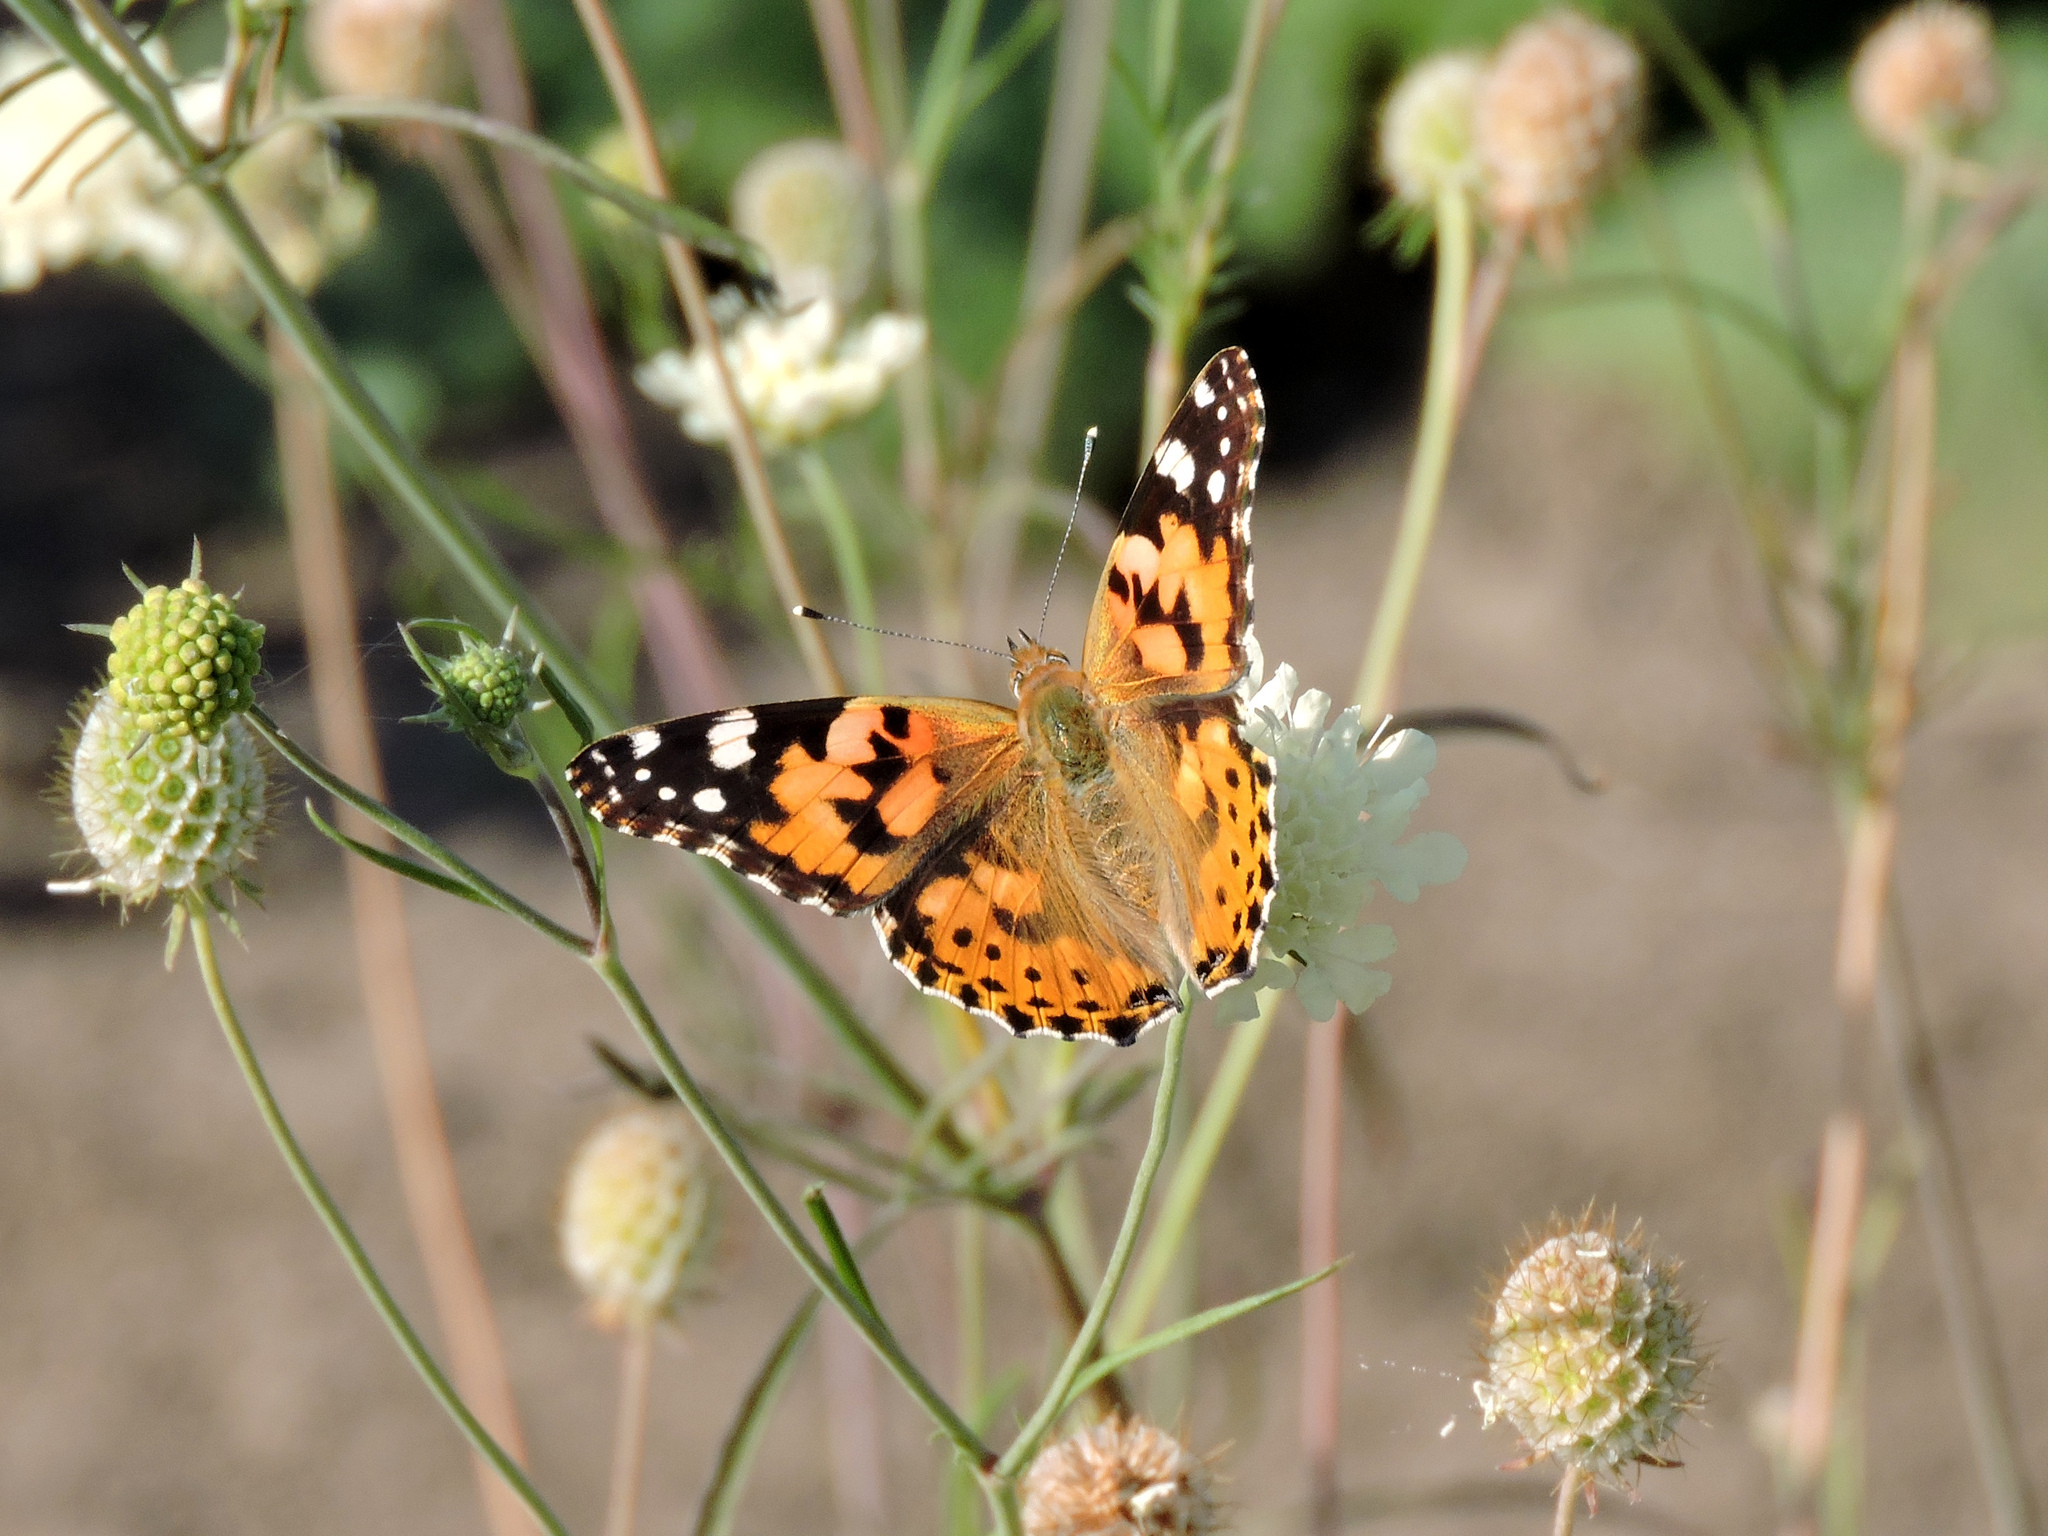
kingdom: Animalia
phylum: Arthropoda
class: Insecta
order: Lepidoptera
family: Nymphalidae
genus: Vanessa
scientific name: Vanessa cardui
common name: Painted lady
